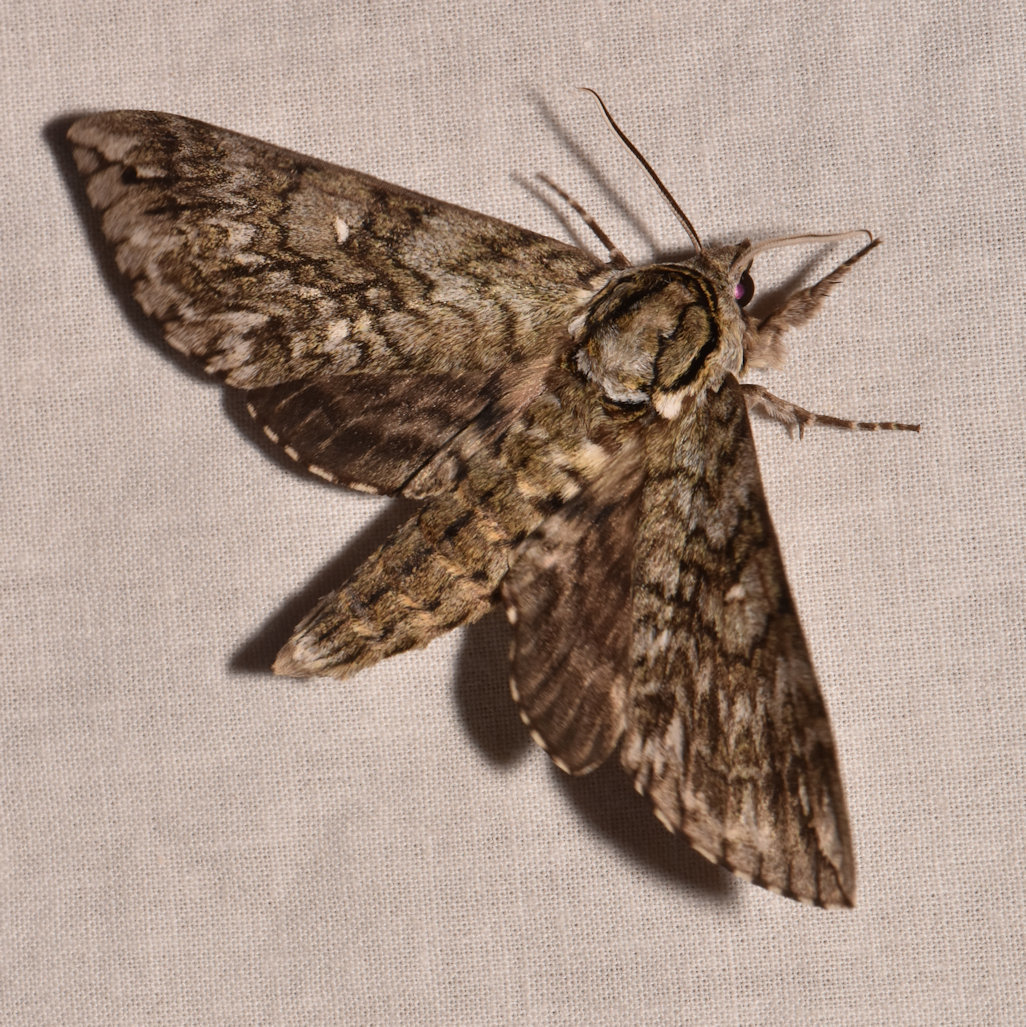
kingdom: Animalia
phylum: Arthropoda
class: Insecta
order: Lepidoptera
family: Sphingidae
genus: Ceratomia
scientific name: Ceratomia undulosa
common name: Waved sphinx
